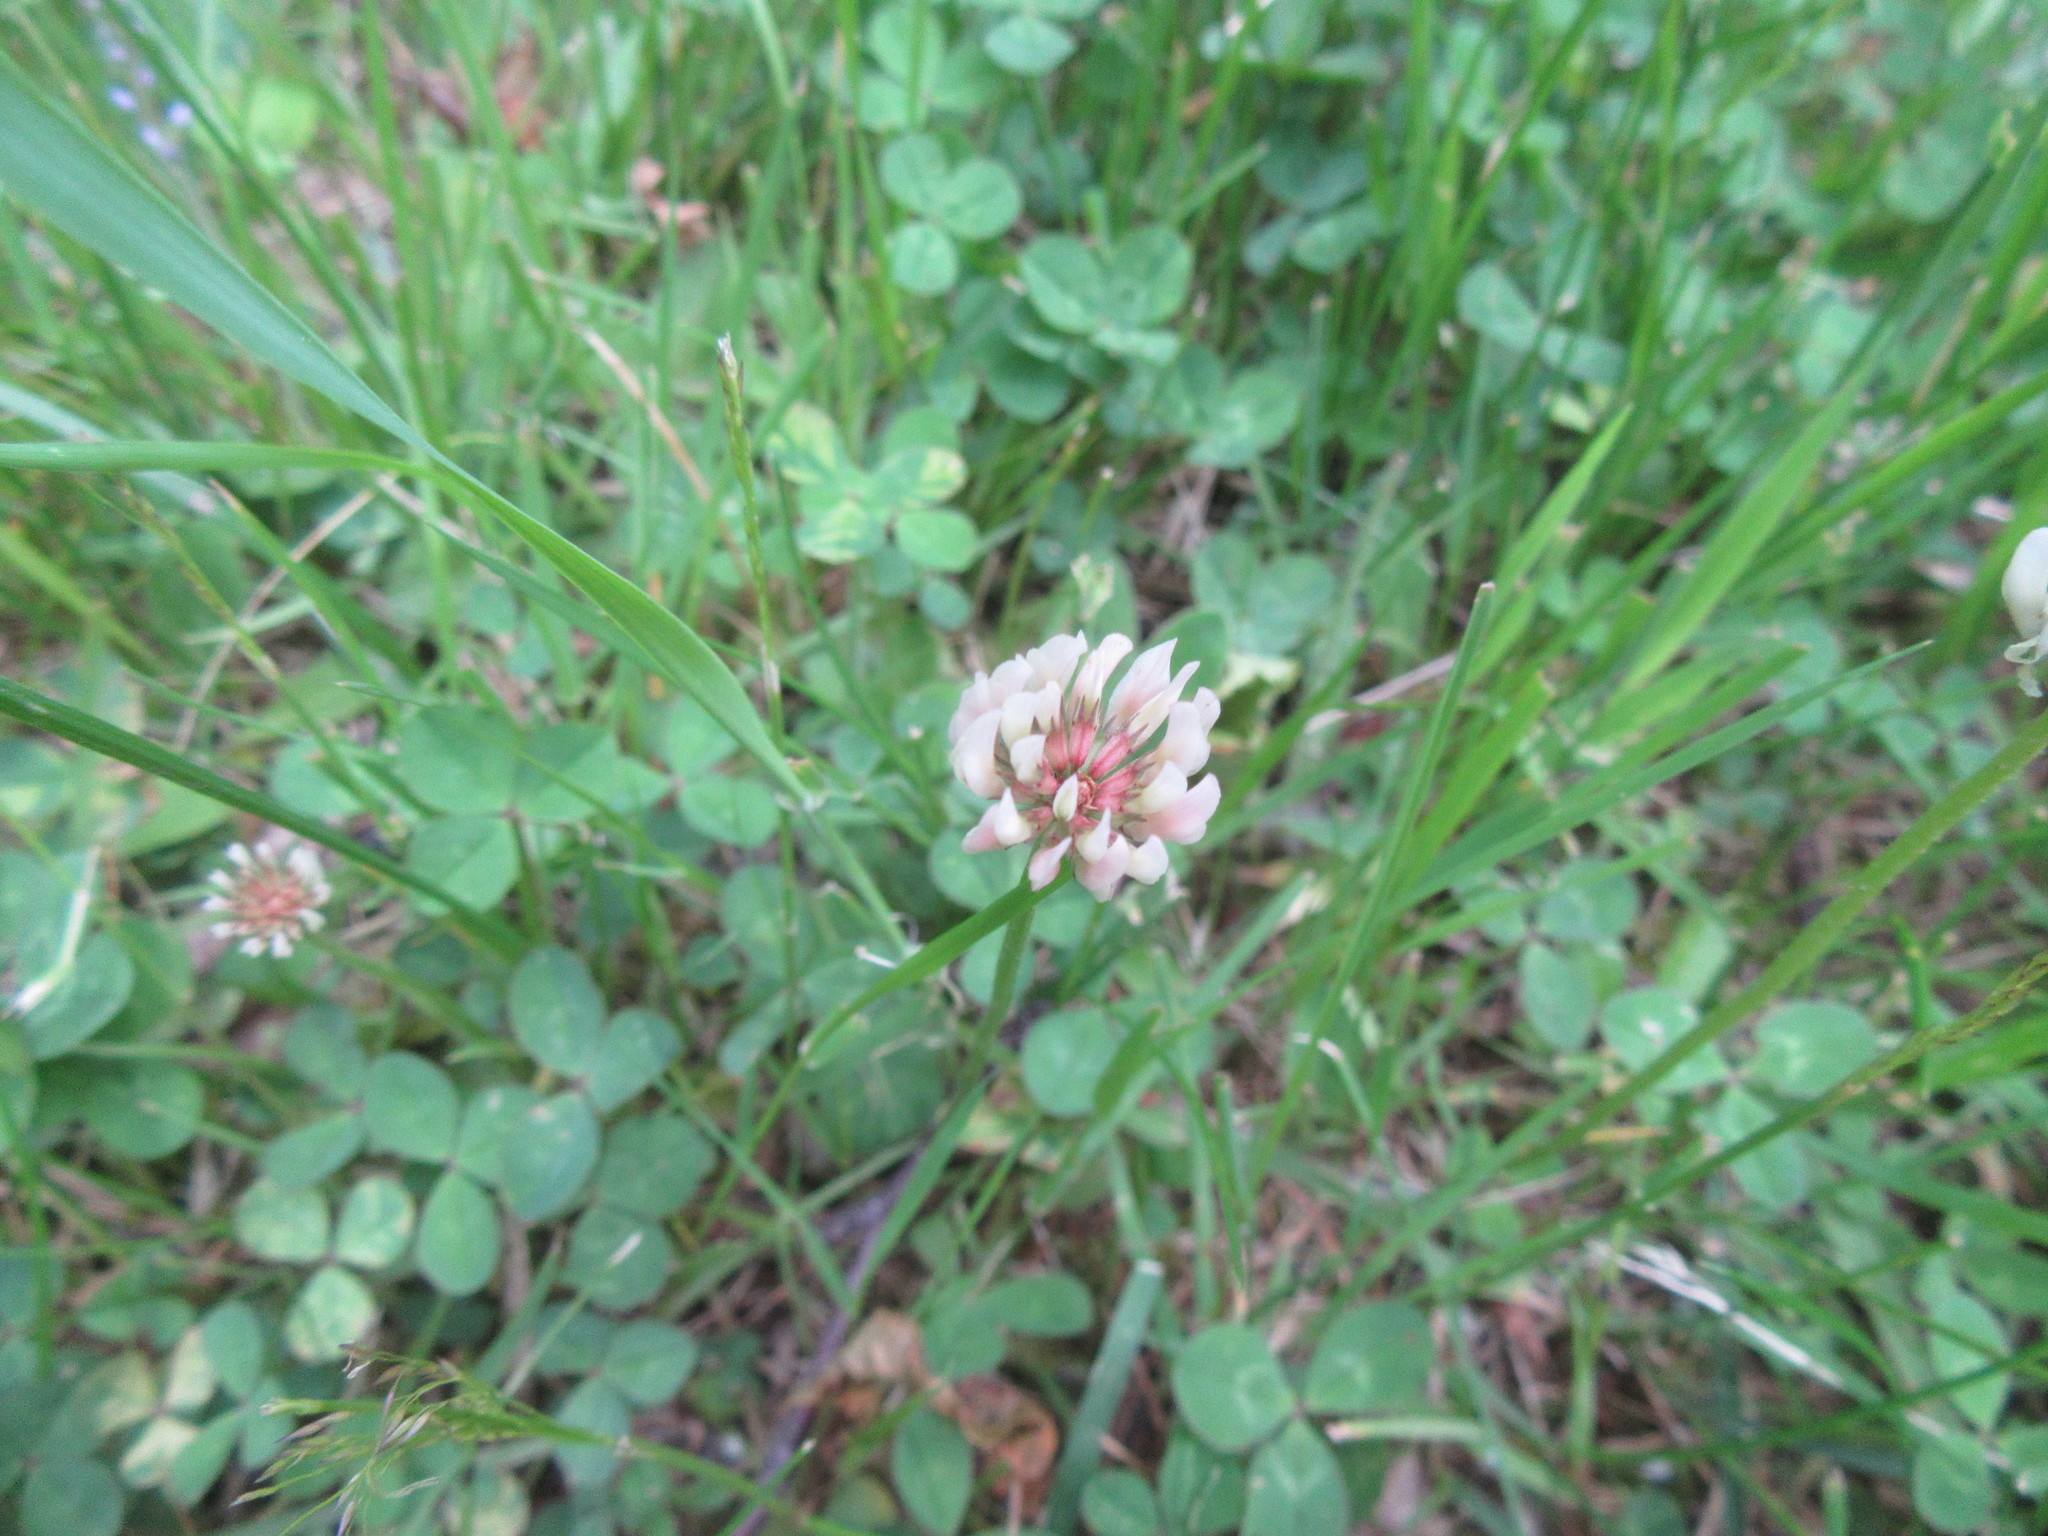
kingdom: Plantae
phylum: Tracheophyta
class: Magnoliopsida
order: Fabales
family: Fabaceae
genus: Trifolium
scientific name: Trifolium repens
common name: White clover
